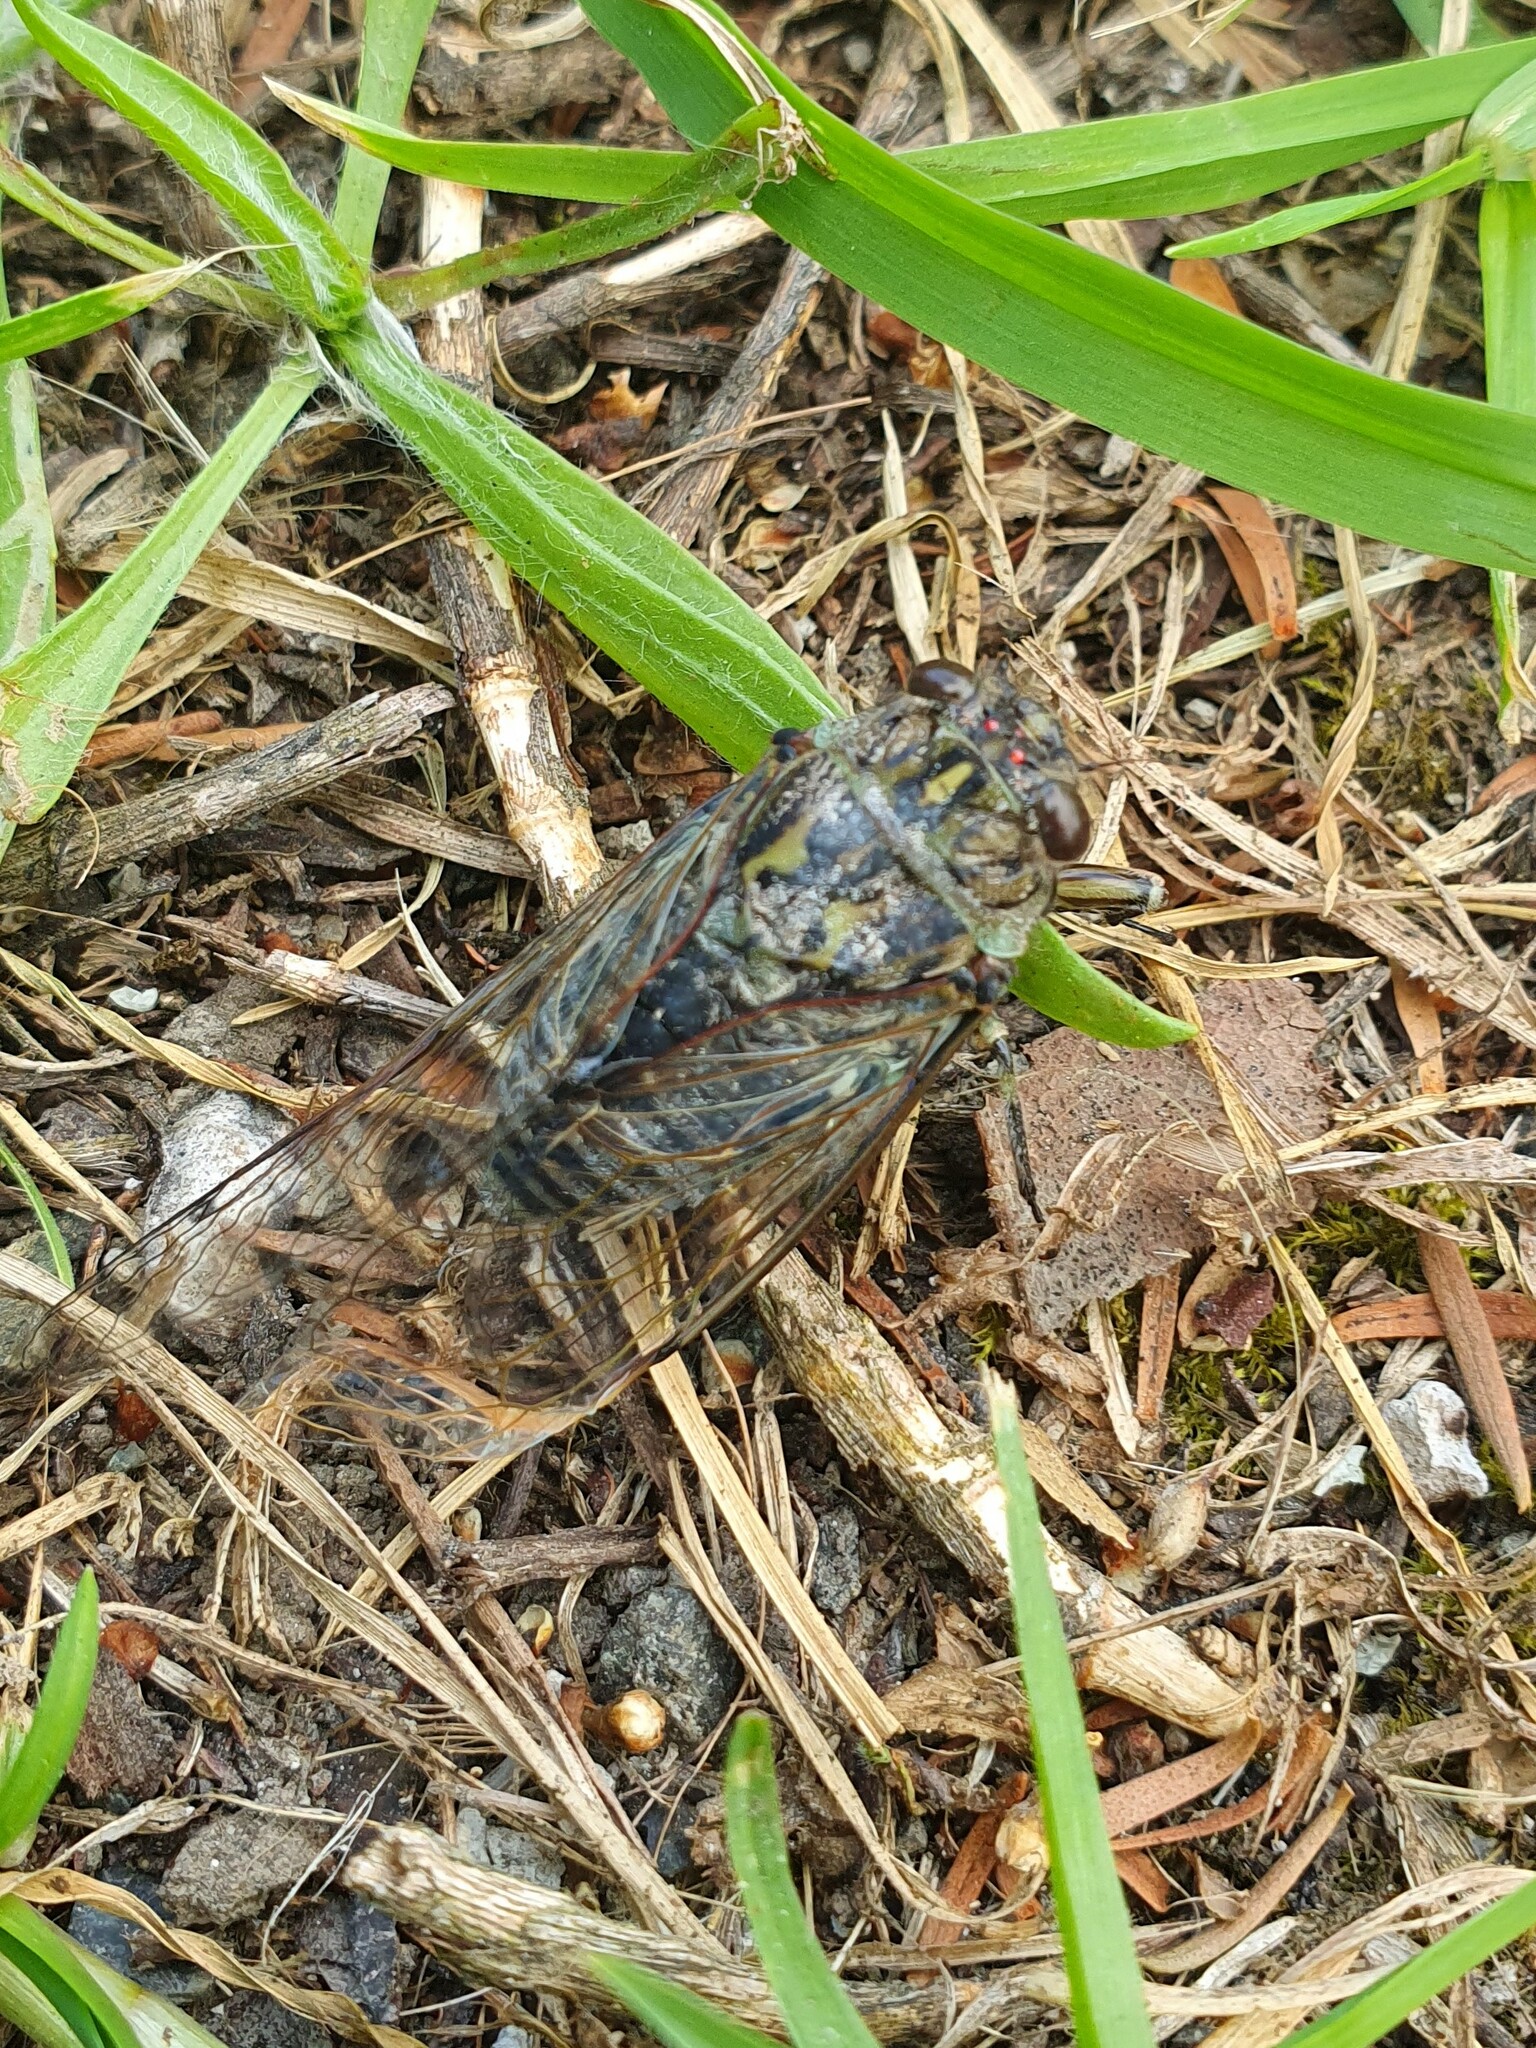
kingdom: Animalia
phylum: Arthropoda
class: Insecta
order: Hemiptera
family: Cicadidae
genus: Amphipsalta
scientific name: Amphipsalta cingulata
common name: Clapping cicada
